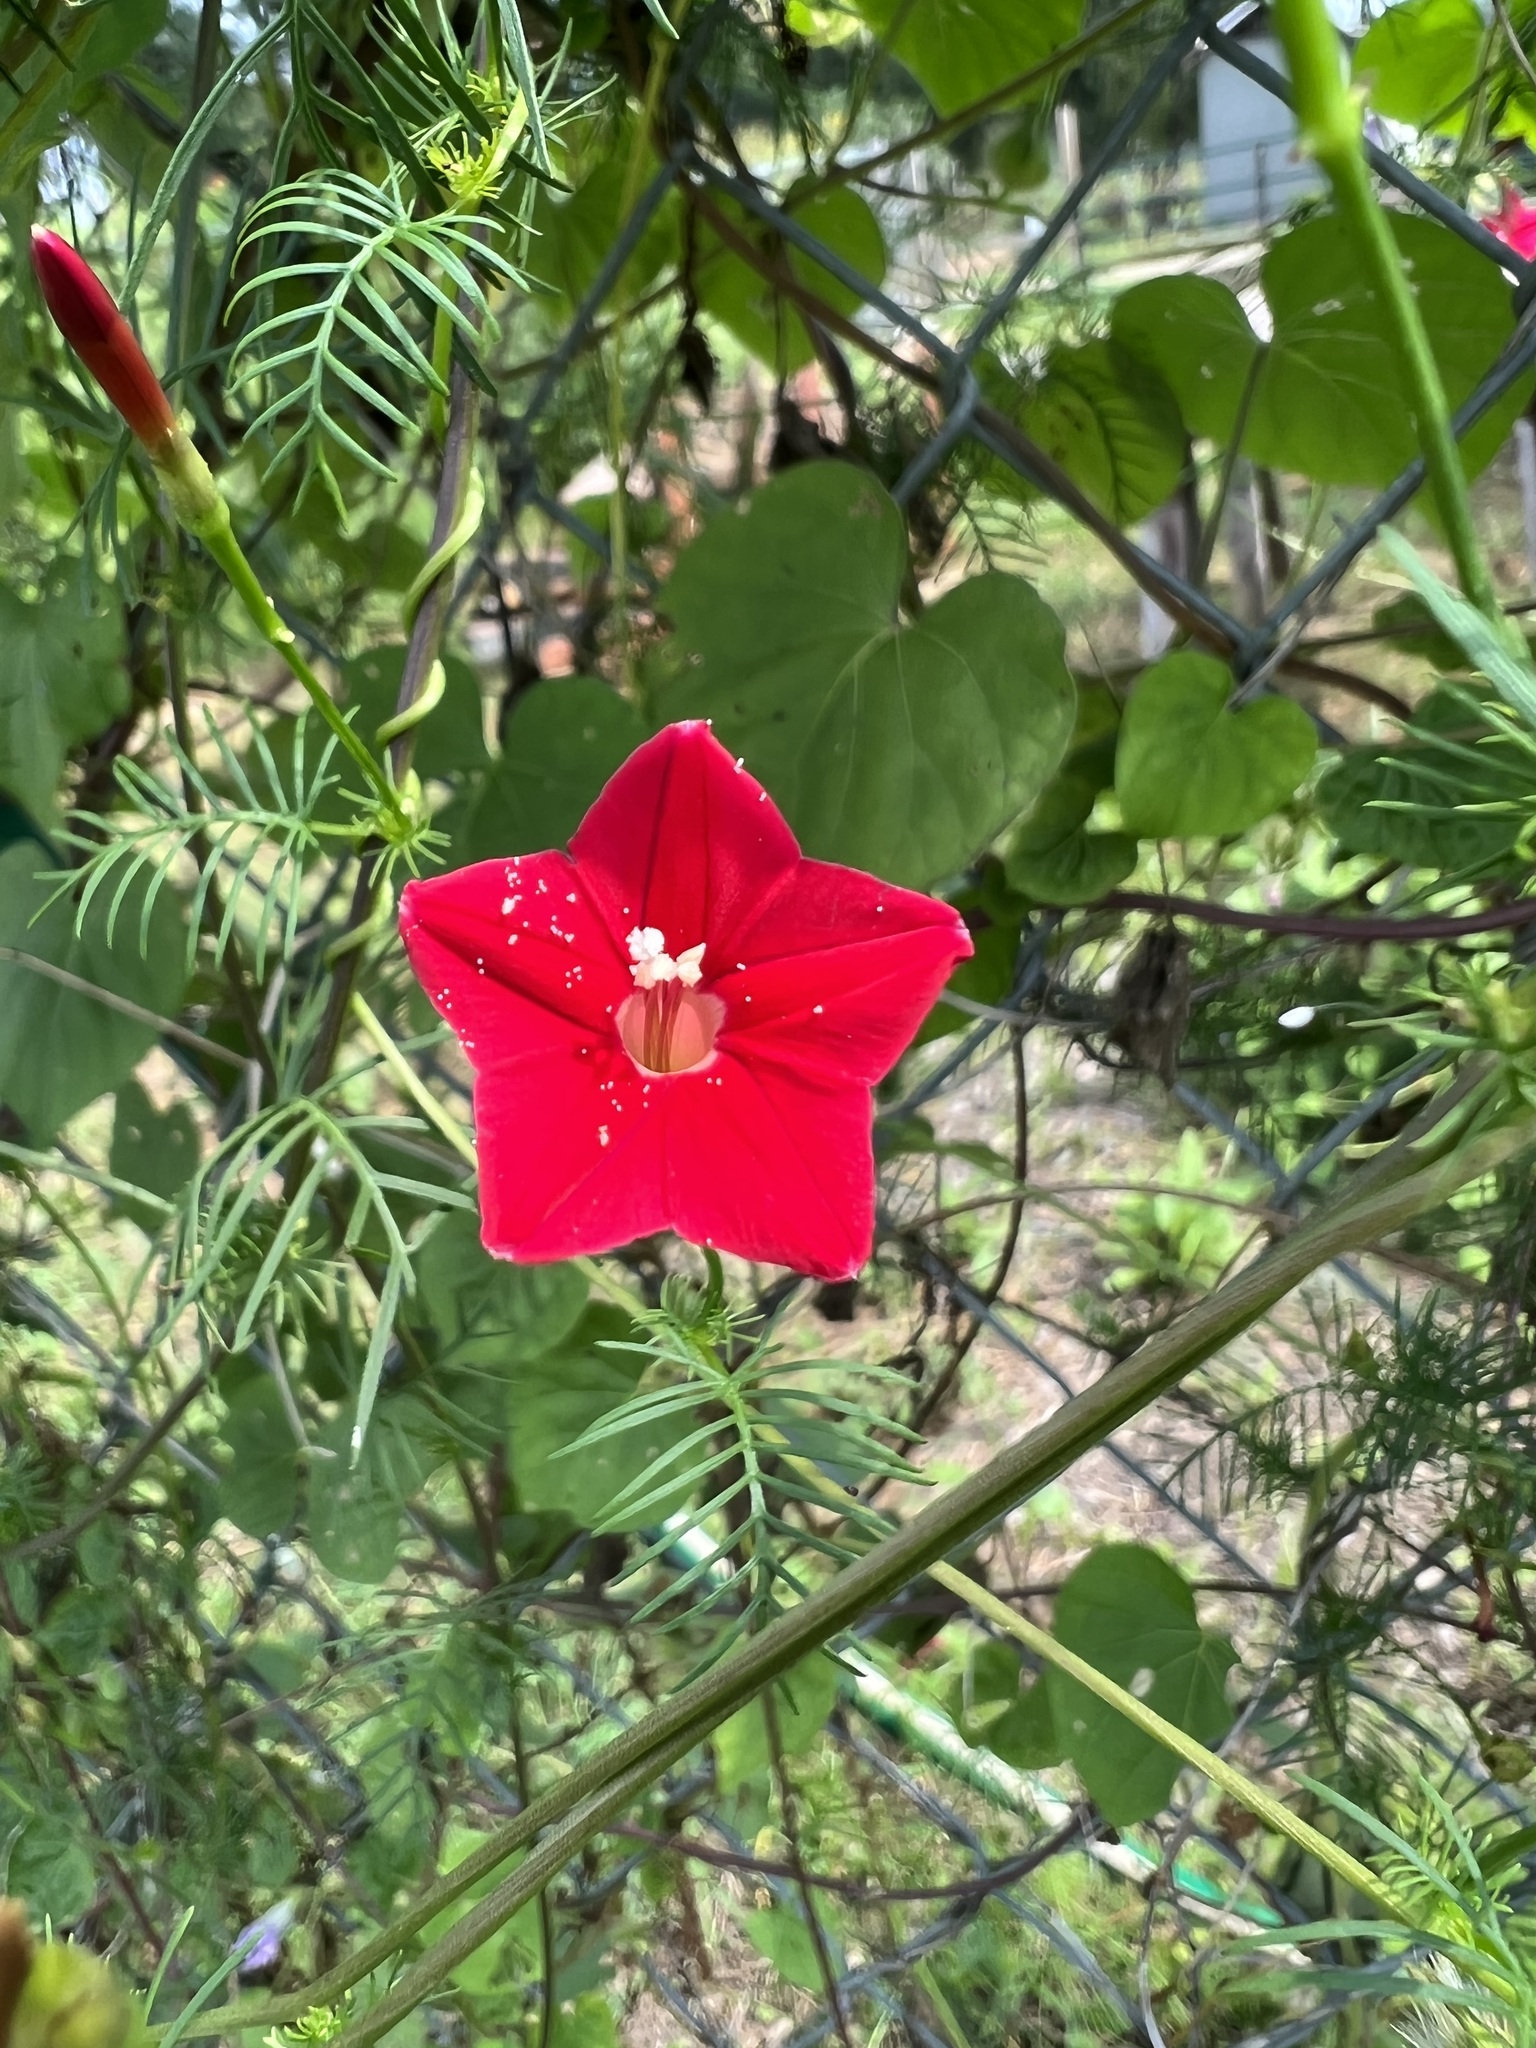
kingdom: Plantae
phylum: Tracheophyta
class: Magnoliopsida
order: Solanales
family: Convolvulaceae
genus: Ipomoea
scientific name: Ipomoea quamoclit
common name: Cypress vine
